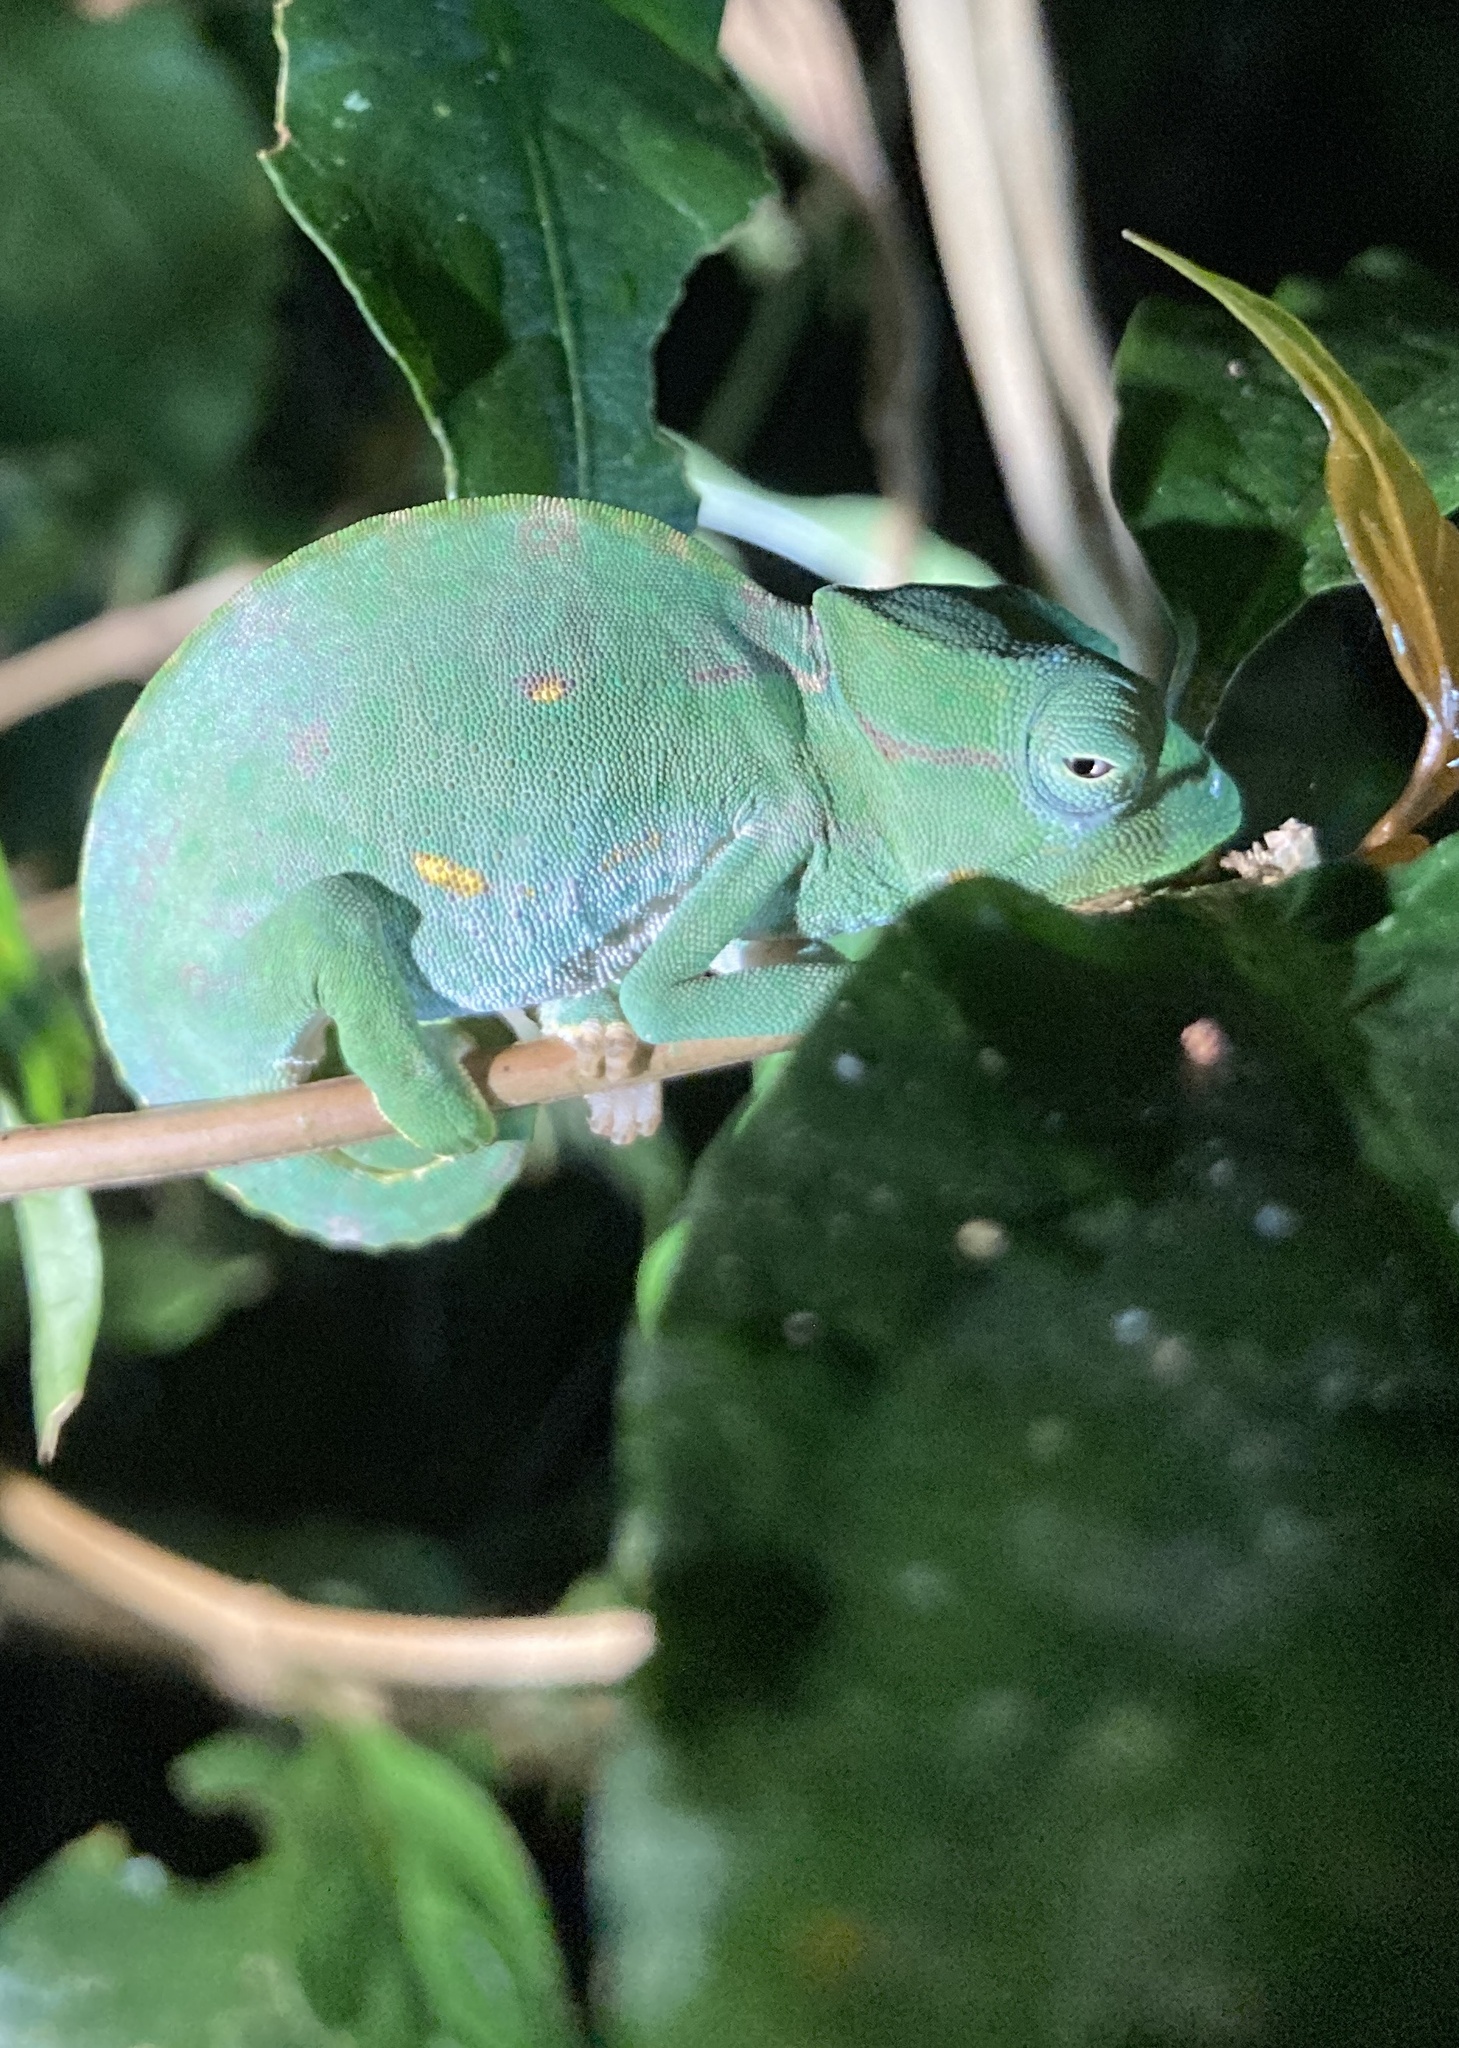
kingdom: Animalia
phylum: Chordata
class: Squamata
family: Chamaeleonidae
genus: Trioceros
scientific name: Trioceros deremensis
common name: Wavy chameleon
